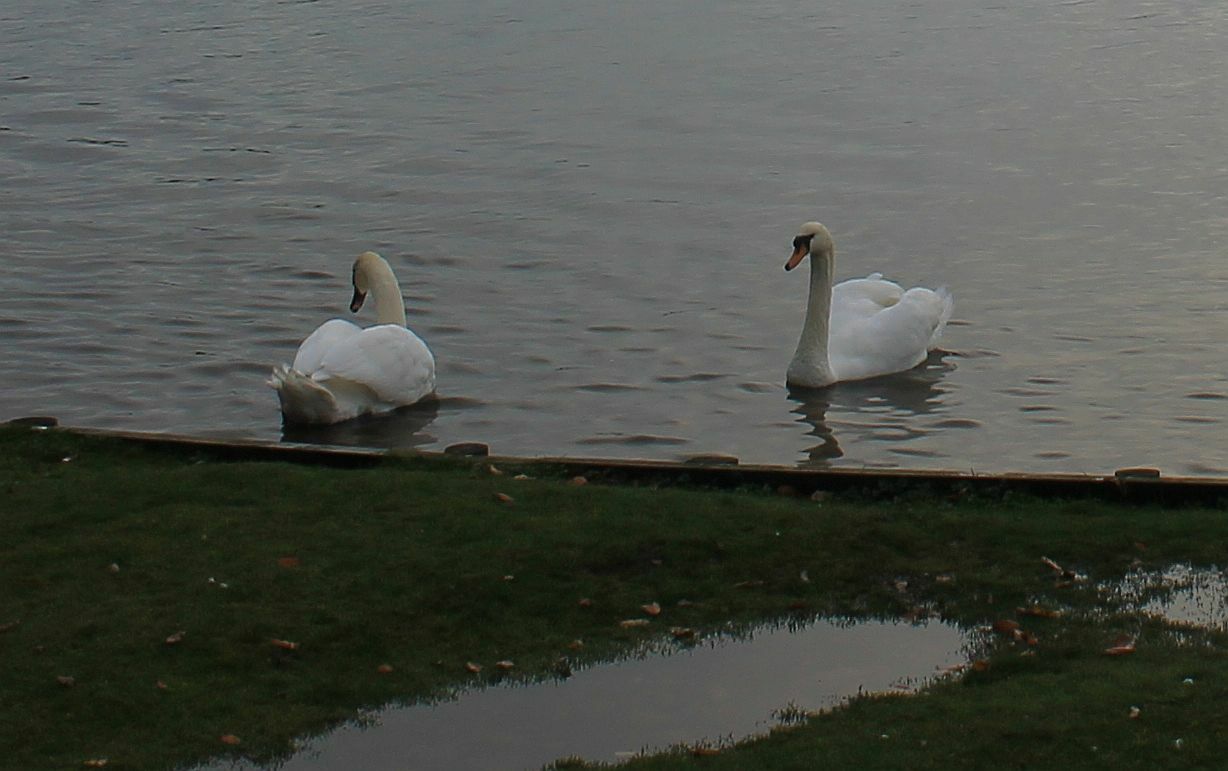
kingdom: Animalia
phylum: Chordata
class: Aves
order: Anseriformes
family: Anatidae
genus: Cygnus
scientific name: Cygnus olor
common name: Mute swan
